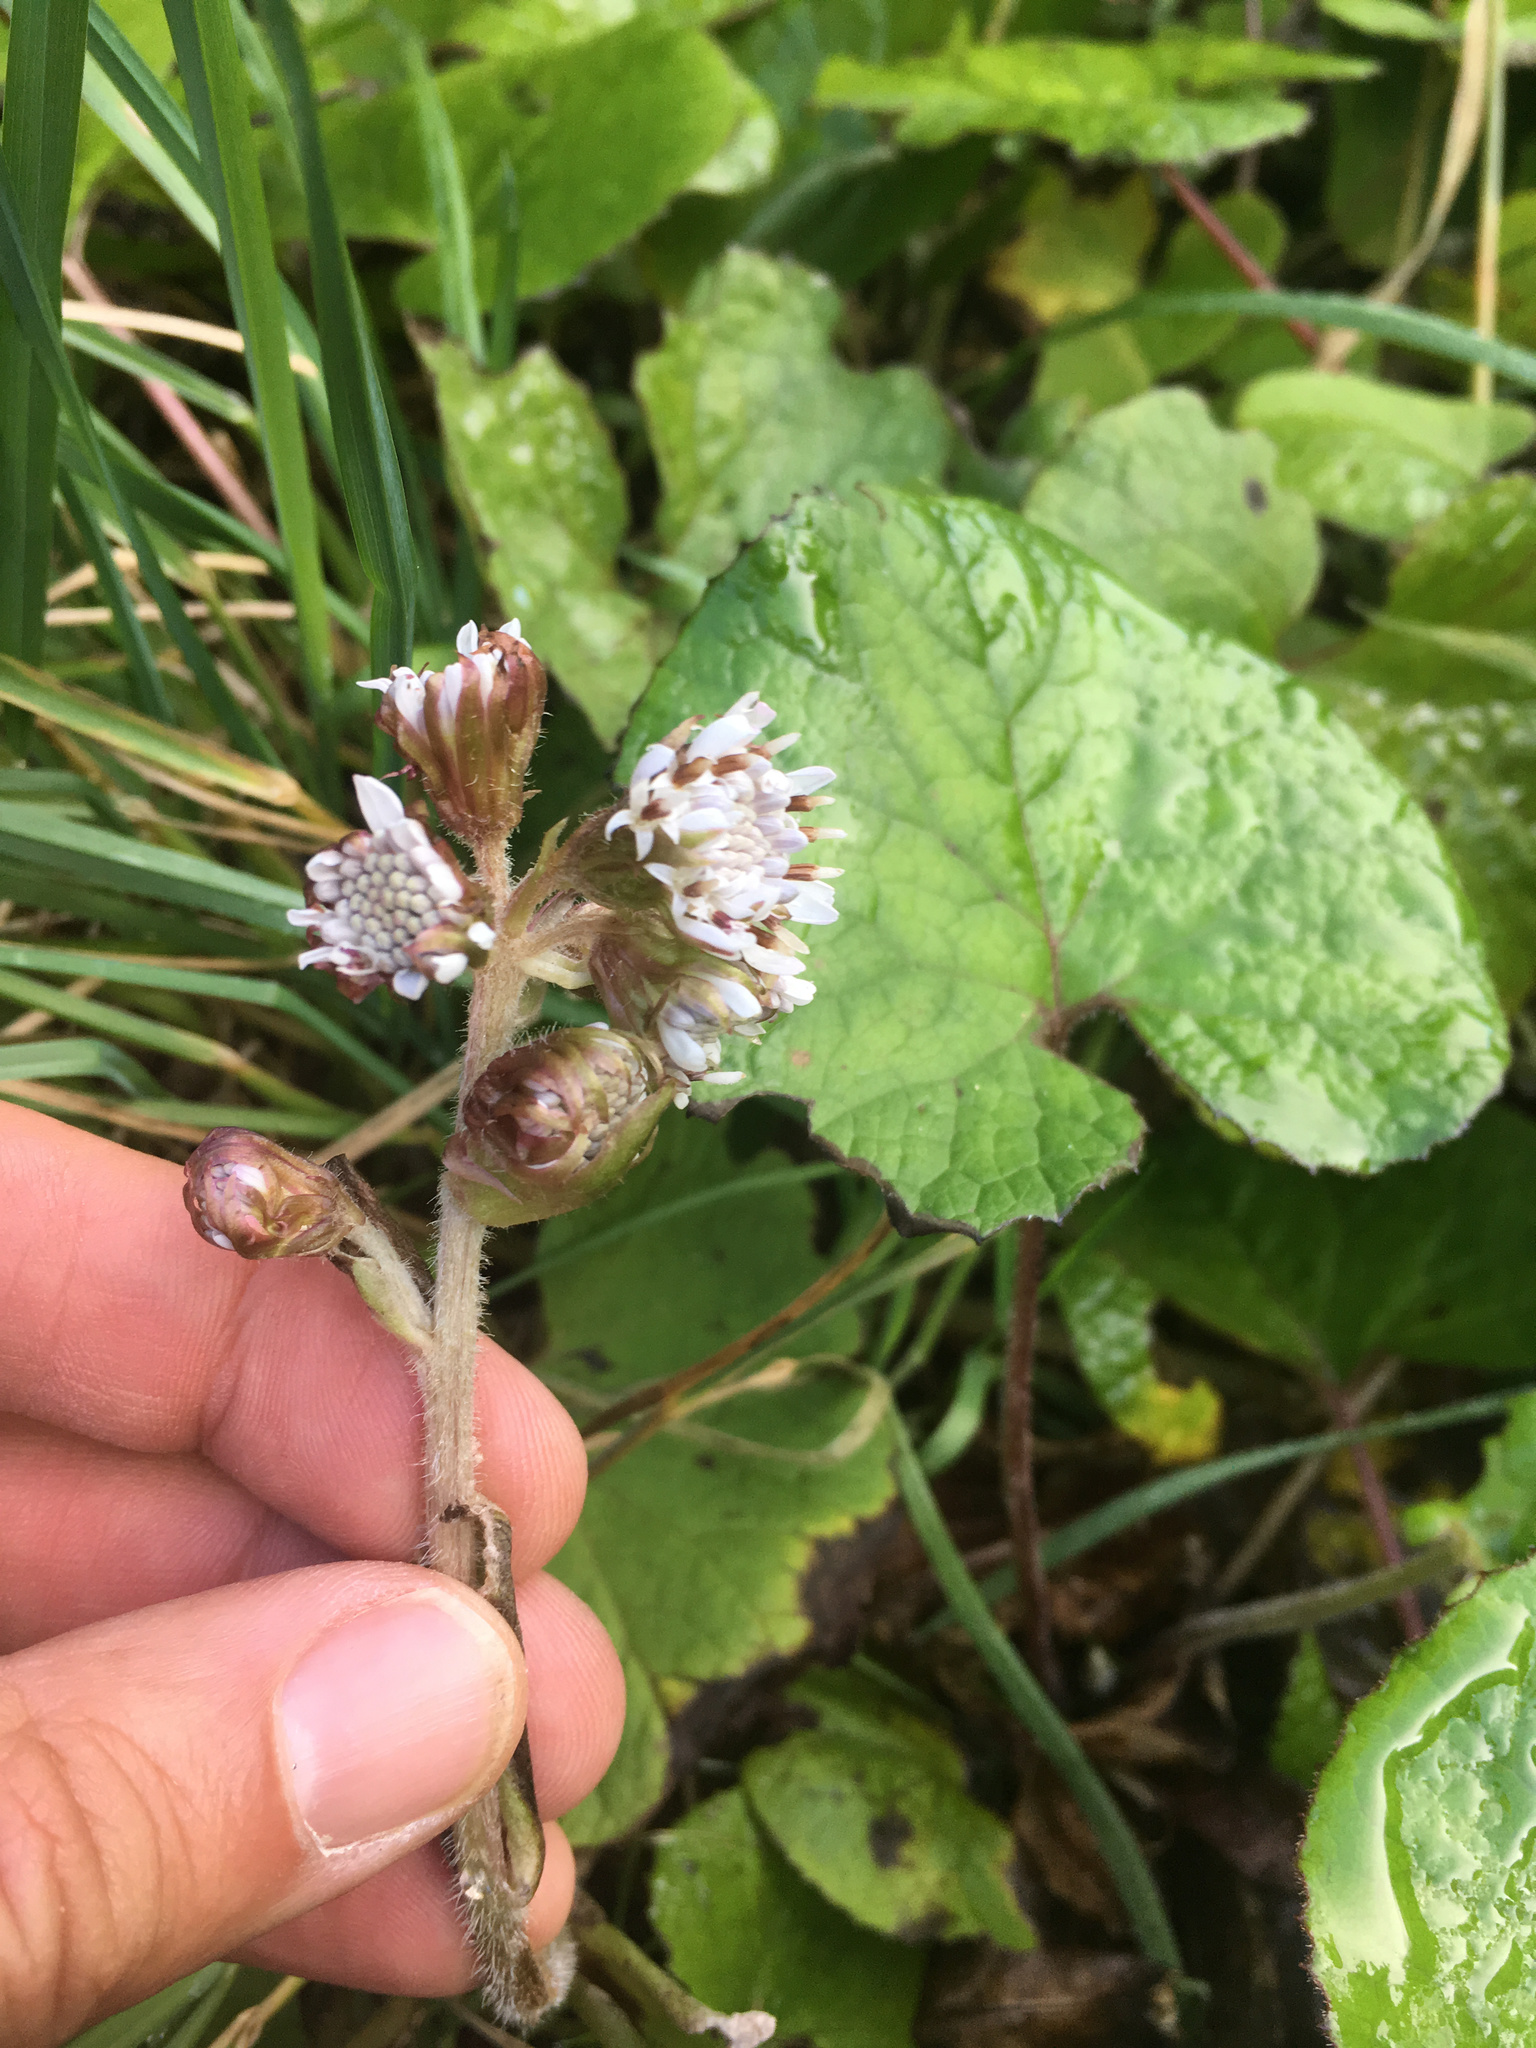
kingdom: Plantae
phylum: Tracheophyta
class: Magnoliopsida
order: Asterales
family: Asteraceae
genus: Petasites
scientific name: Petasites pyrenaicus
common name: Winter heliotrope
